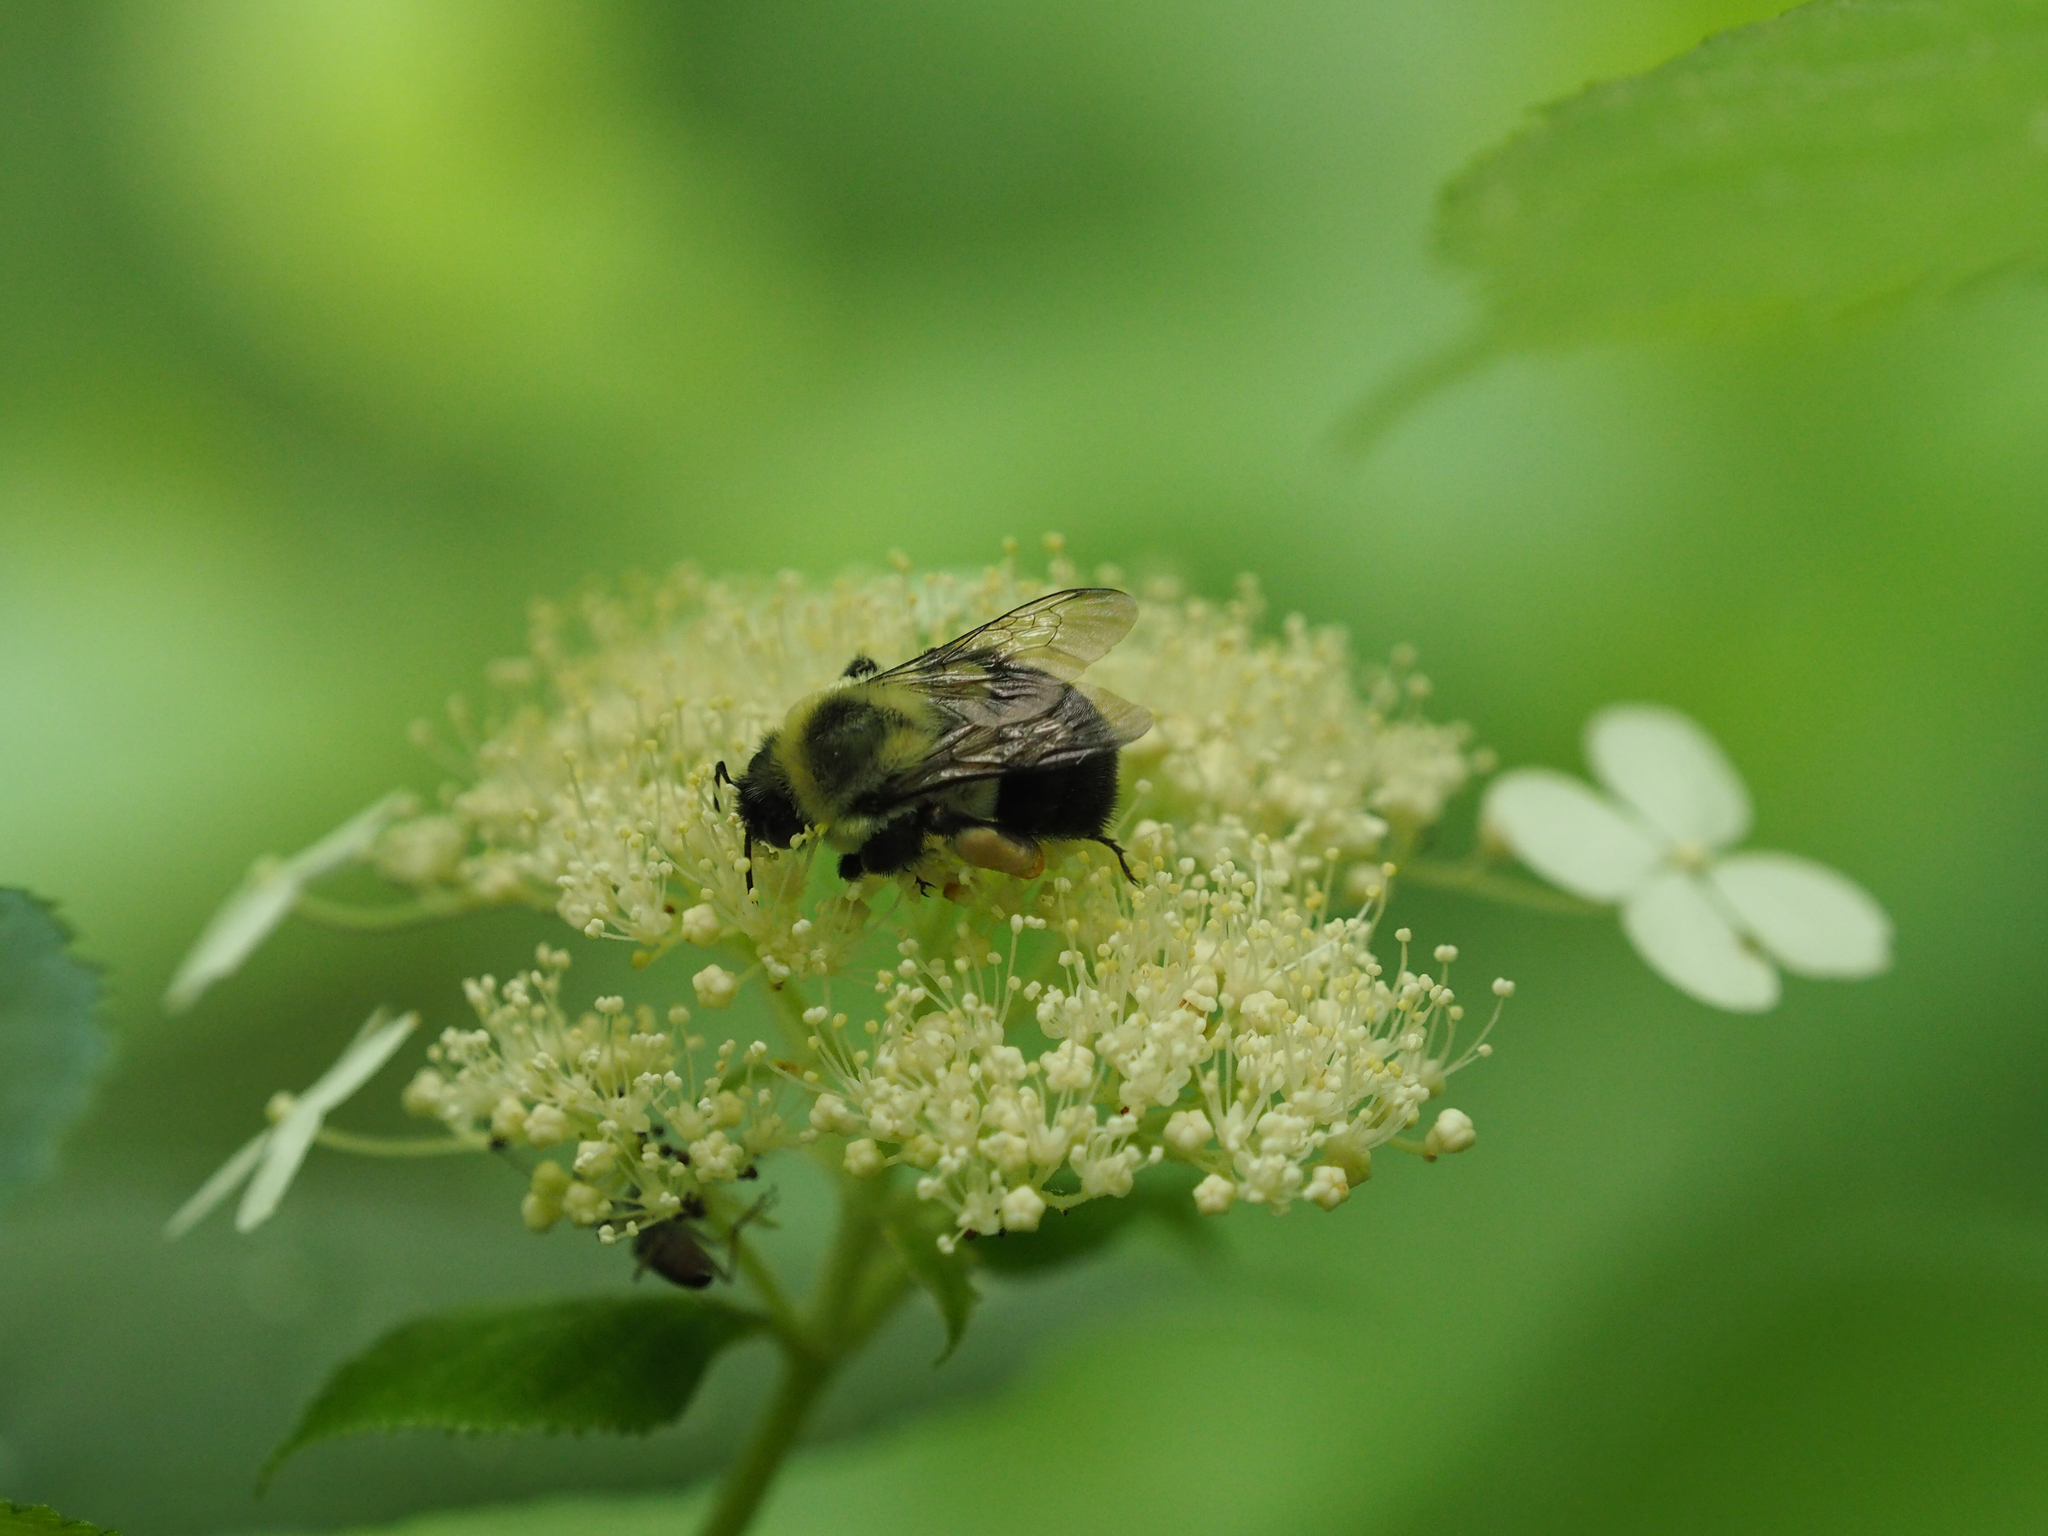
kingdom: Animalia
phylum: Arthropoda
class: Insecta
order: Hymenoptera
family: Apidae
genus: Bombus
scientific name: Bombus impatiens
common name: Common eastern bumble bee
